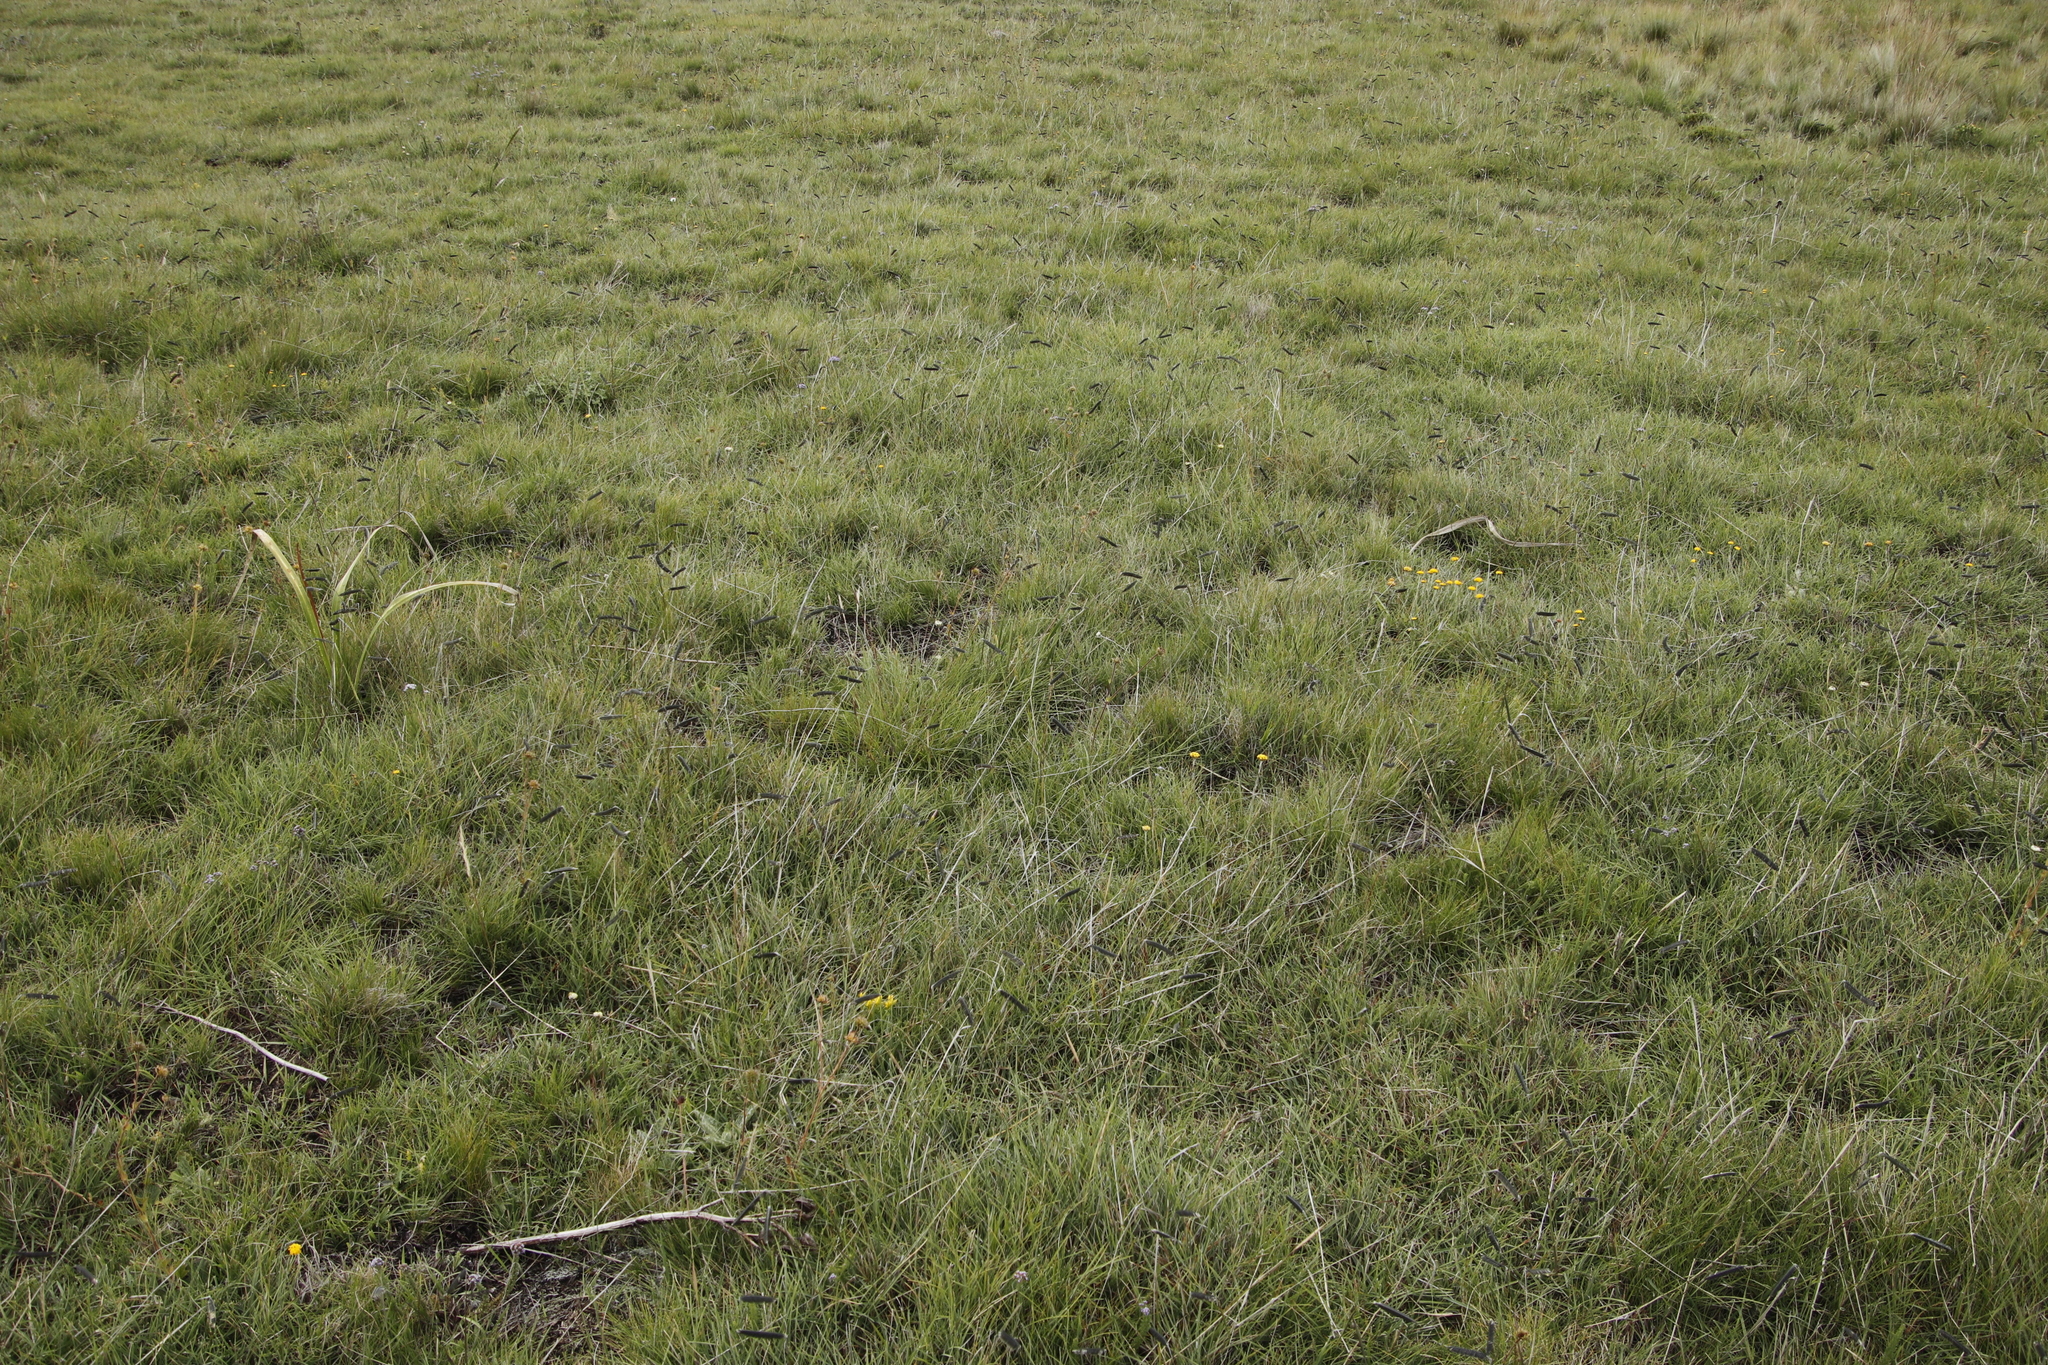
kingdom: Plantae
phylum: Tracheophyta
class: Liliopsida
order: Poales
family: Poaceae
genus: Harpochloa
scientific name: Harpochloa falx
